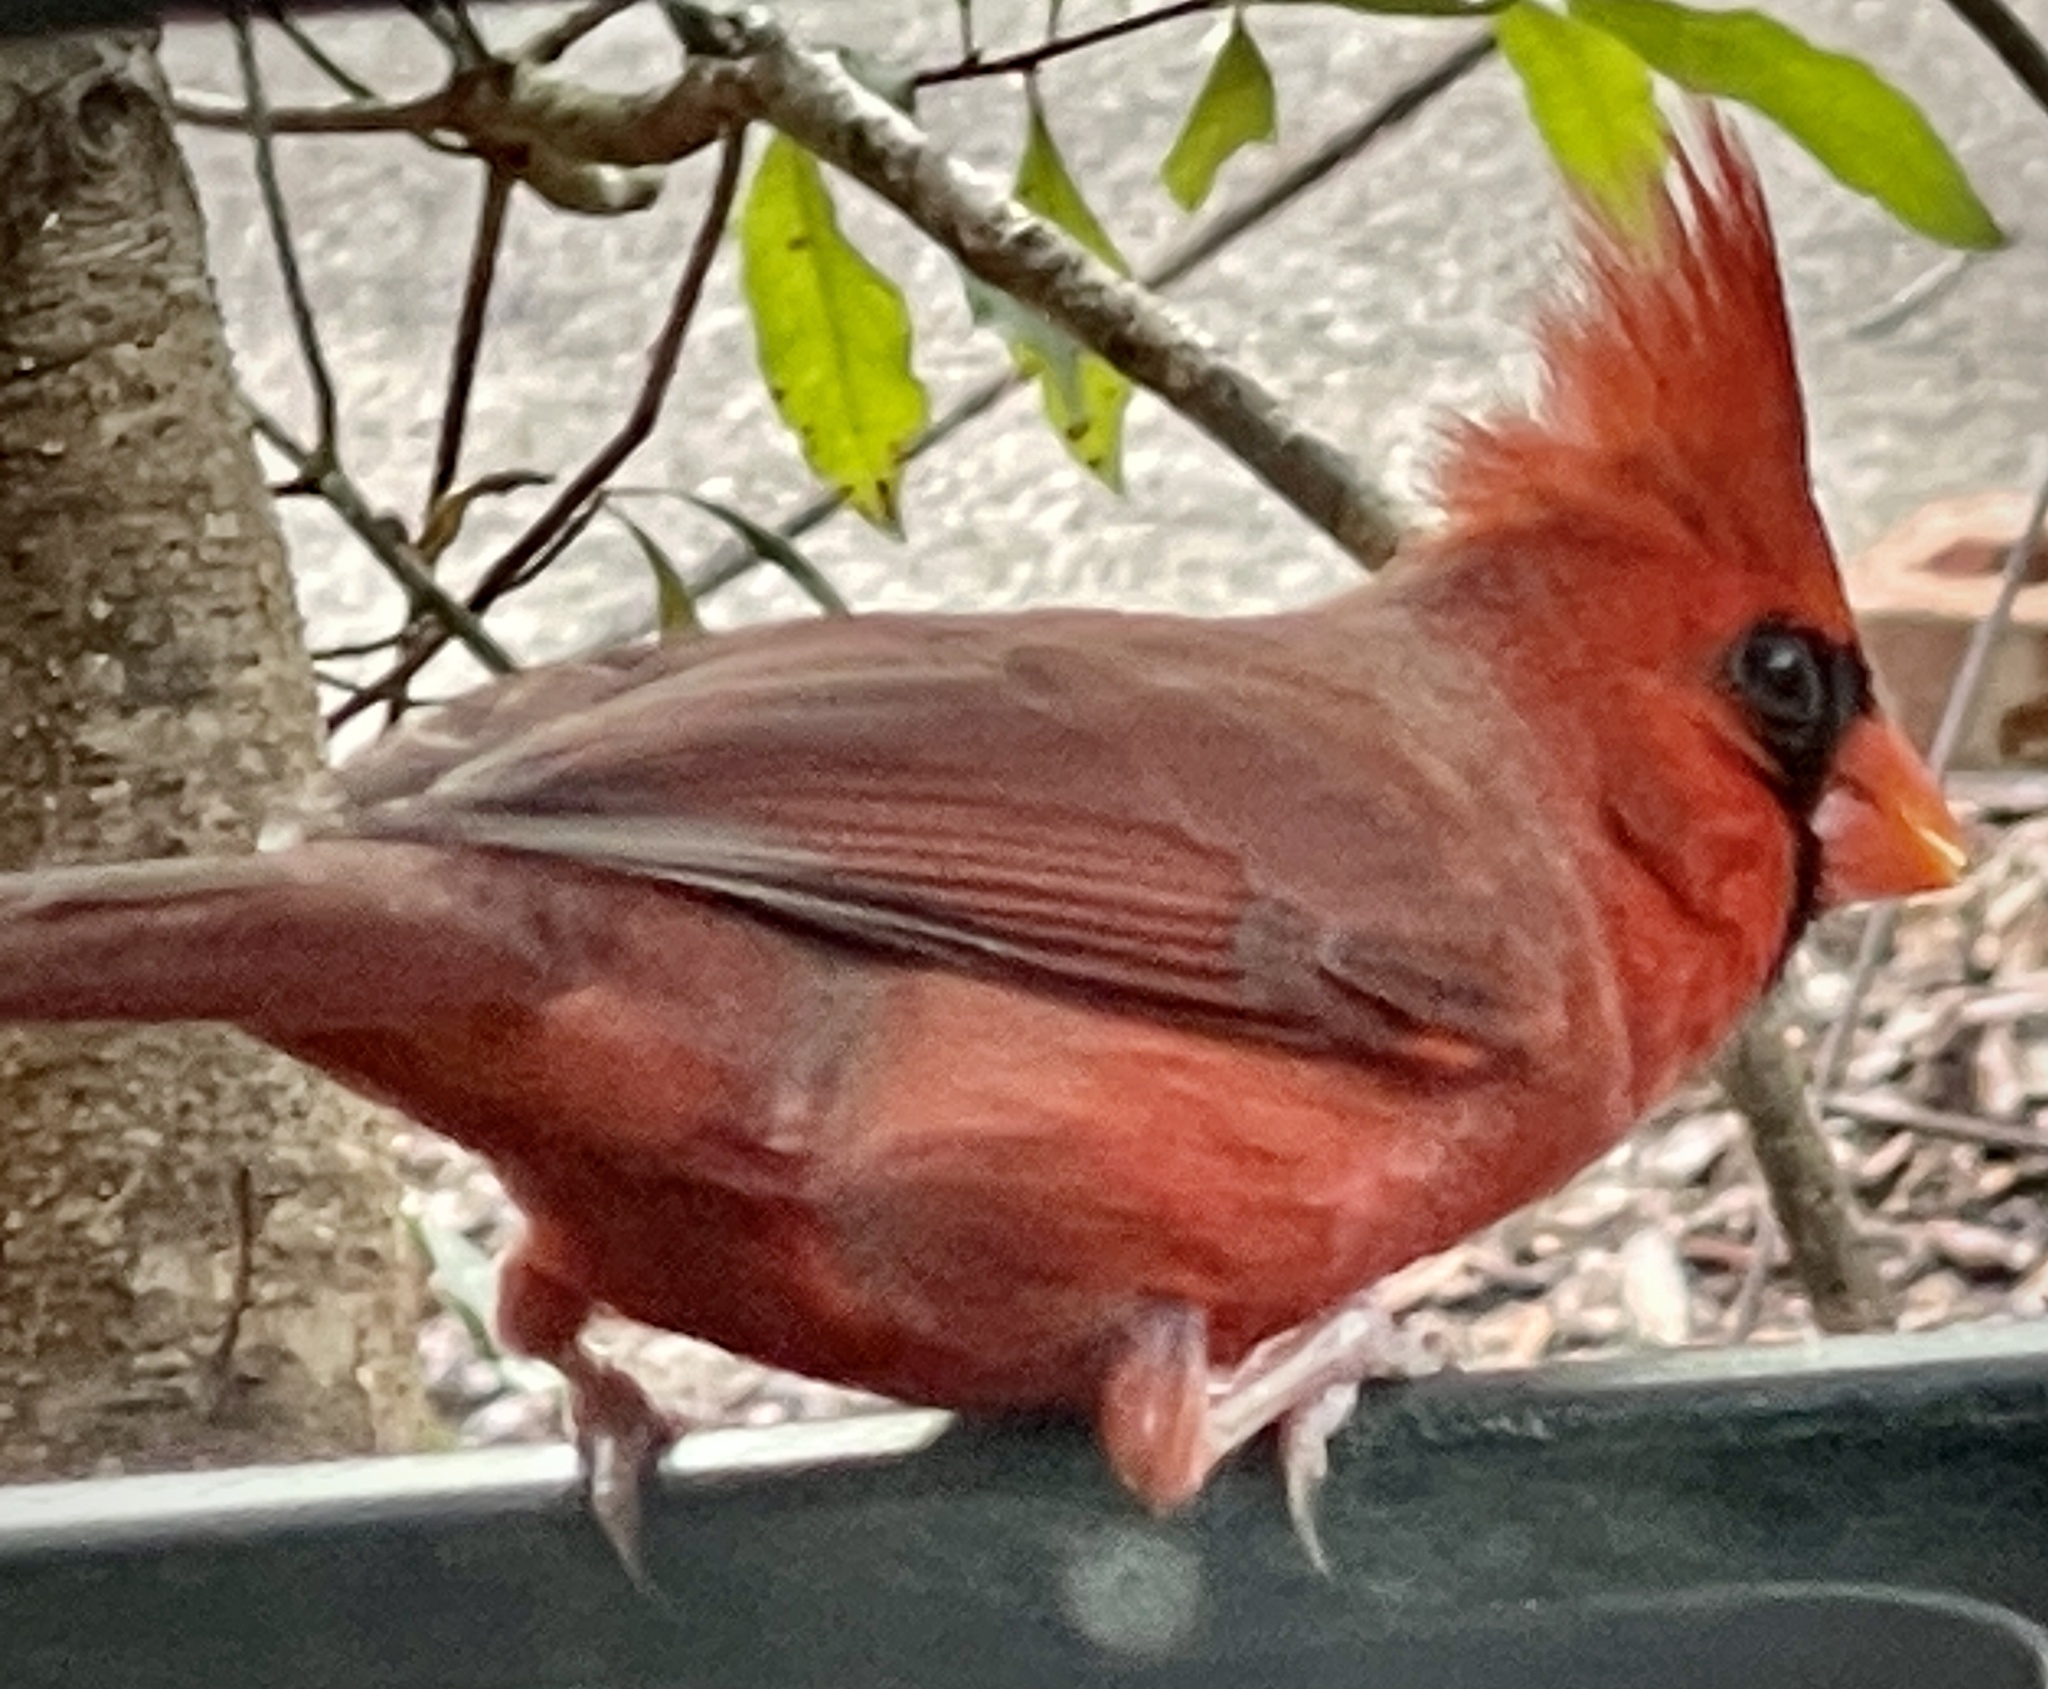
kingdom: Animalia
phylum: Chordata
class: Aves
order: Passeriformes
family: Cardinalidae
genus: Cardinalis
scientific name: Cardinalis cardinalis
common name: Northern cardinal
